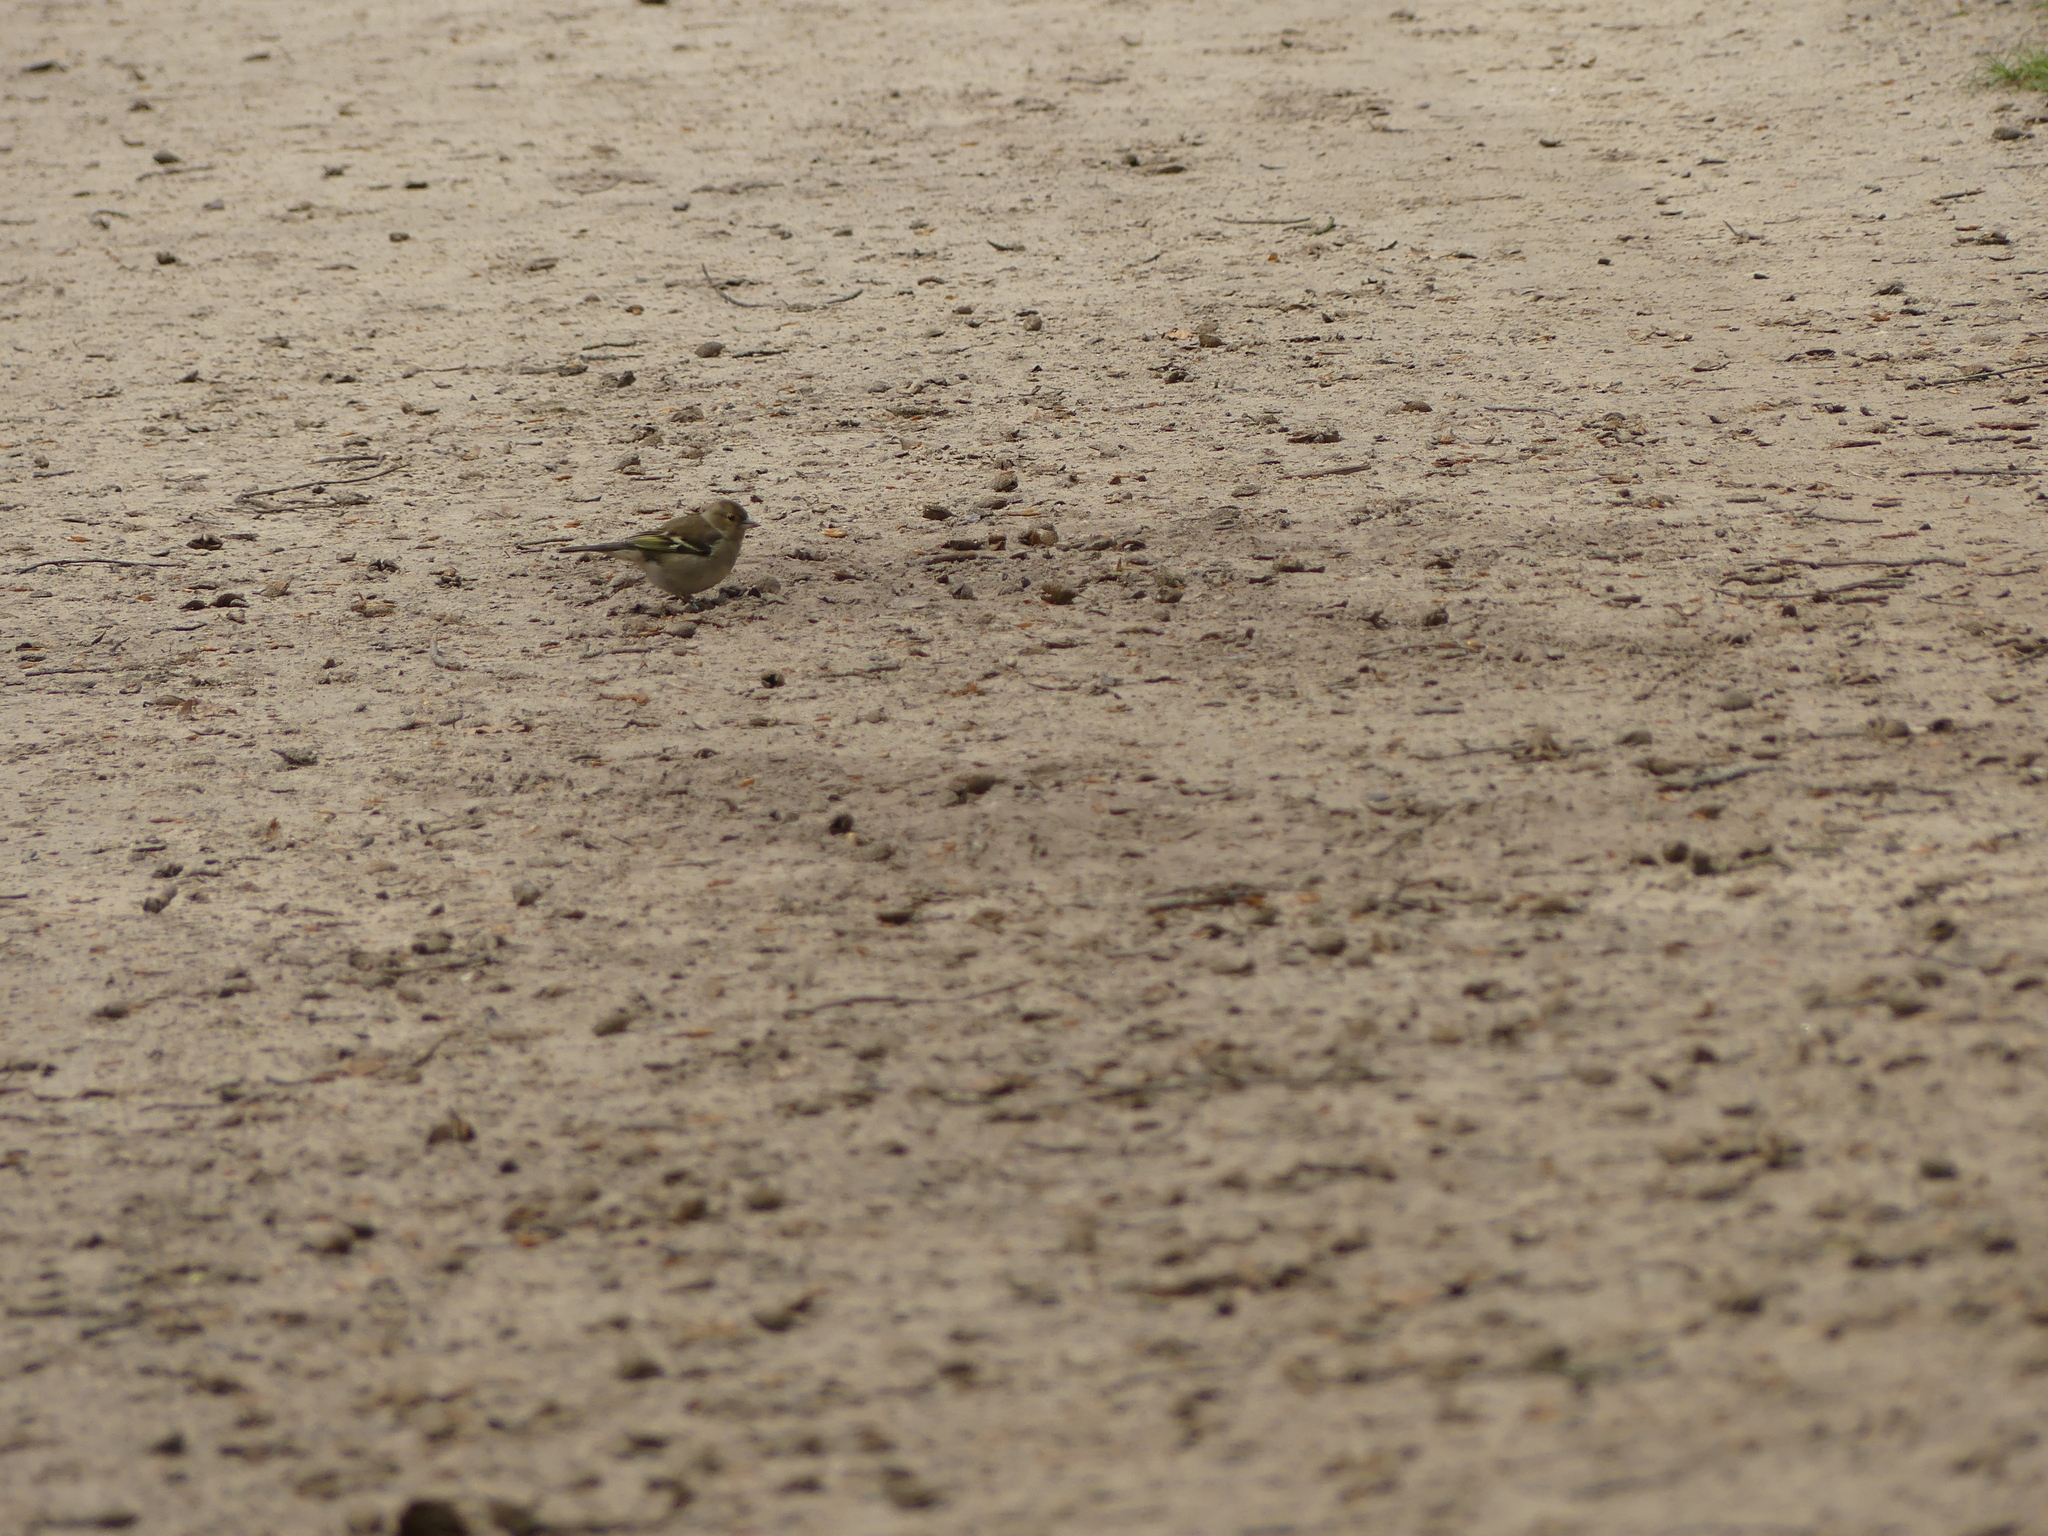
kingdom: Animalia
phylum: Chordata
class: Aves
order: Passeriformes
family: Fringillidae
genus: Fringilla
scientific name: Fringilla coelebs
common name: Common chaffinch
